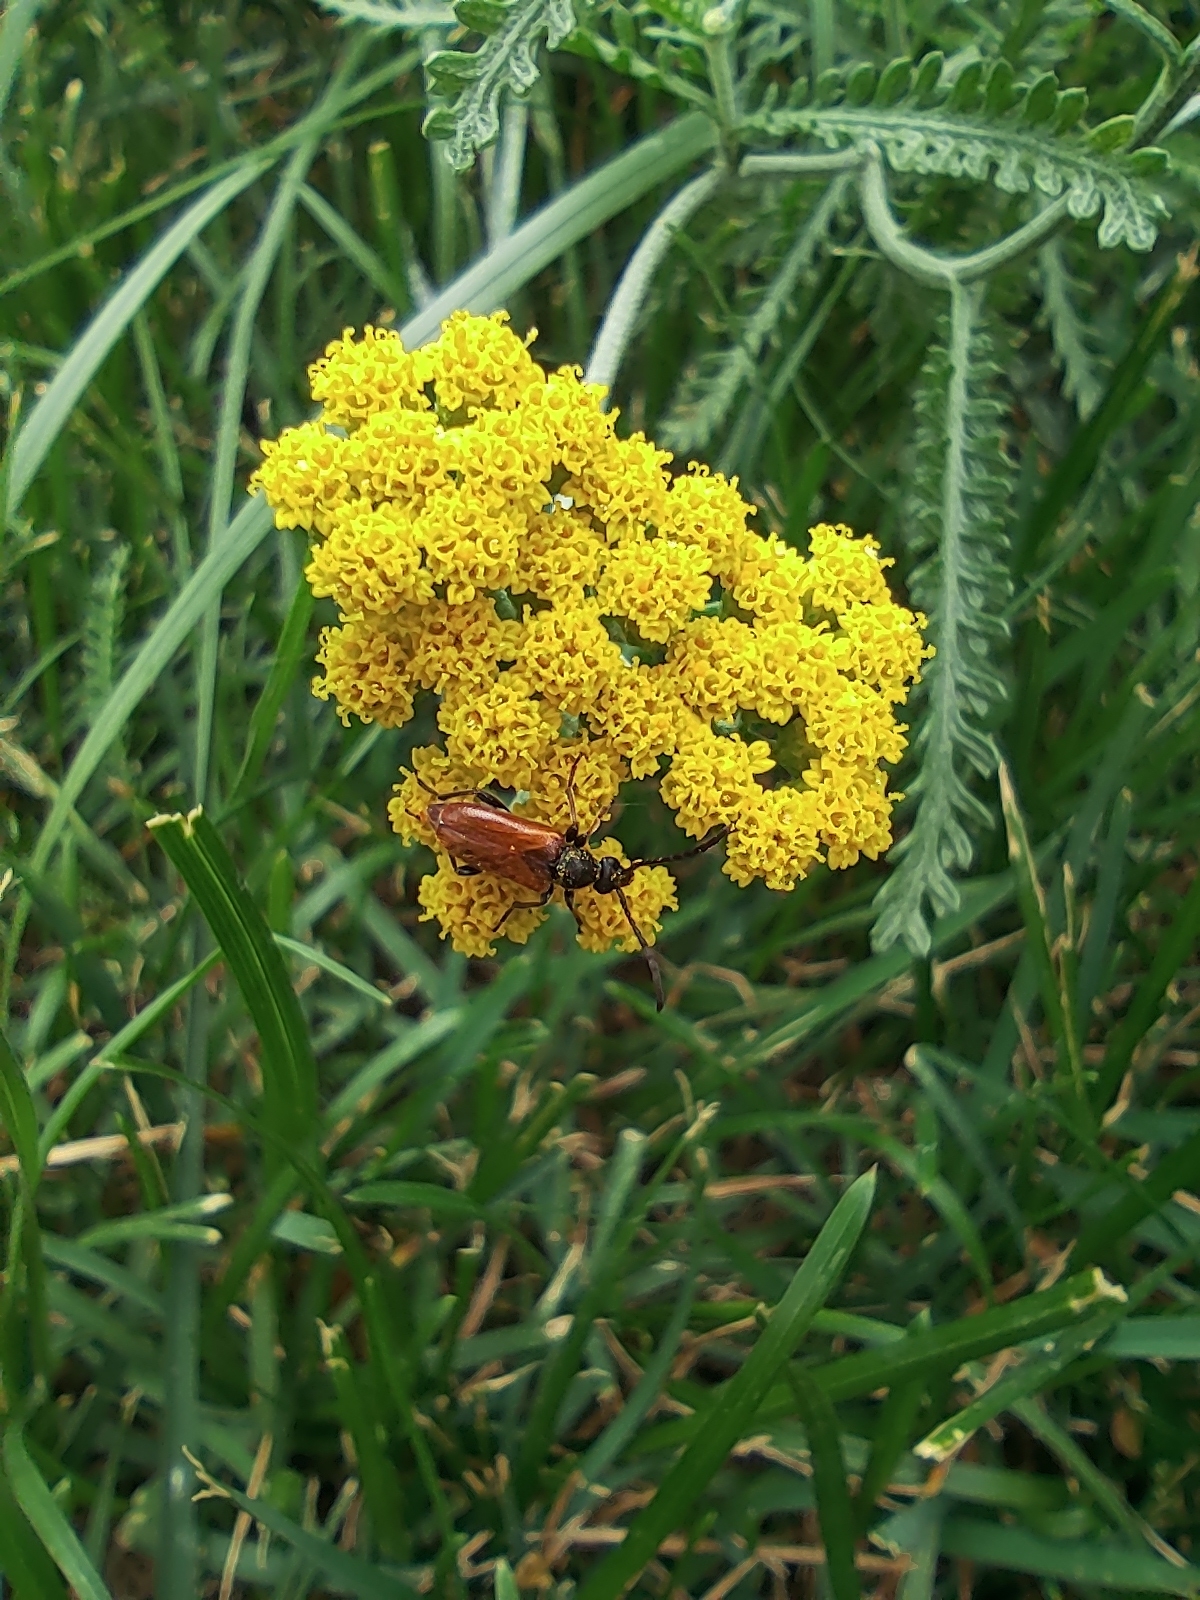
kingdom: Animalia
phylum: Arthropoda
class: Insecta
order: Coleoptera
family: Cerambycidae
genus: Pseudovadonia
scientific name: Pseudovadonia livida
